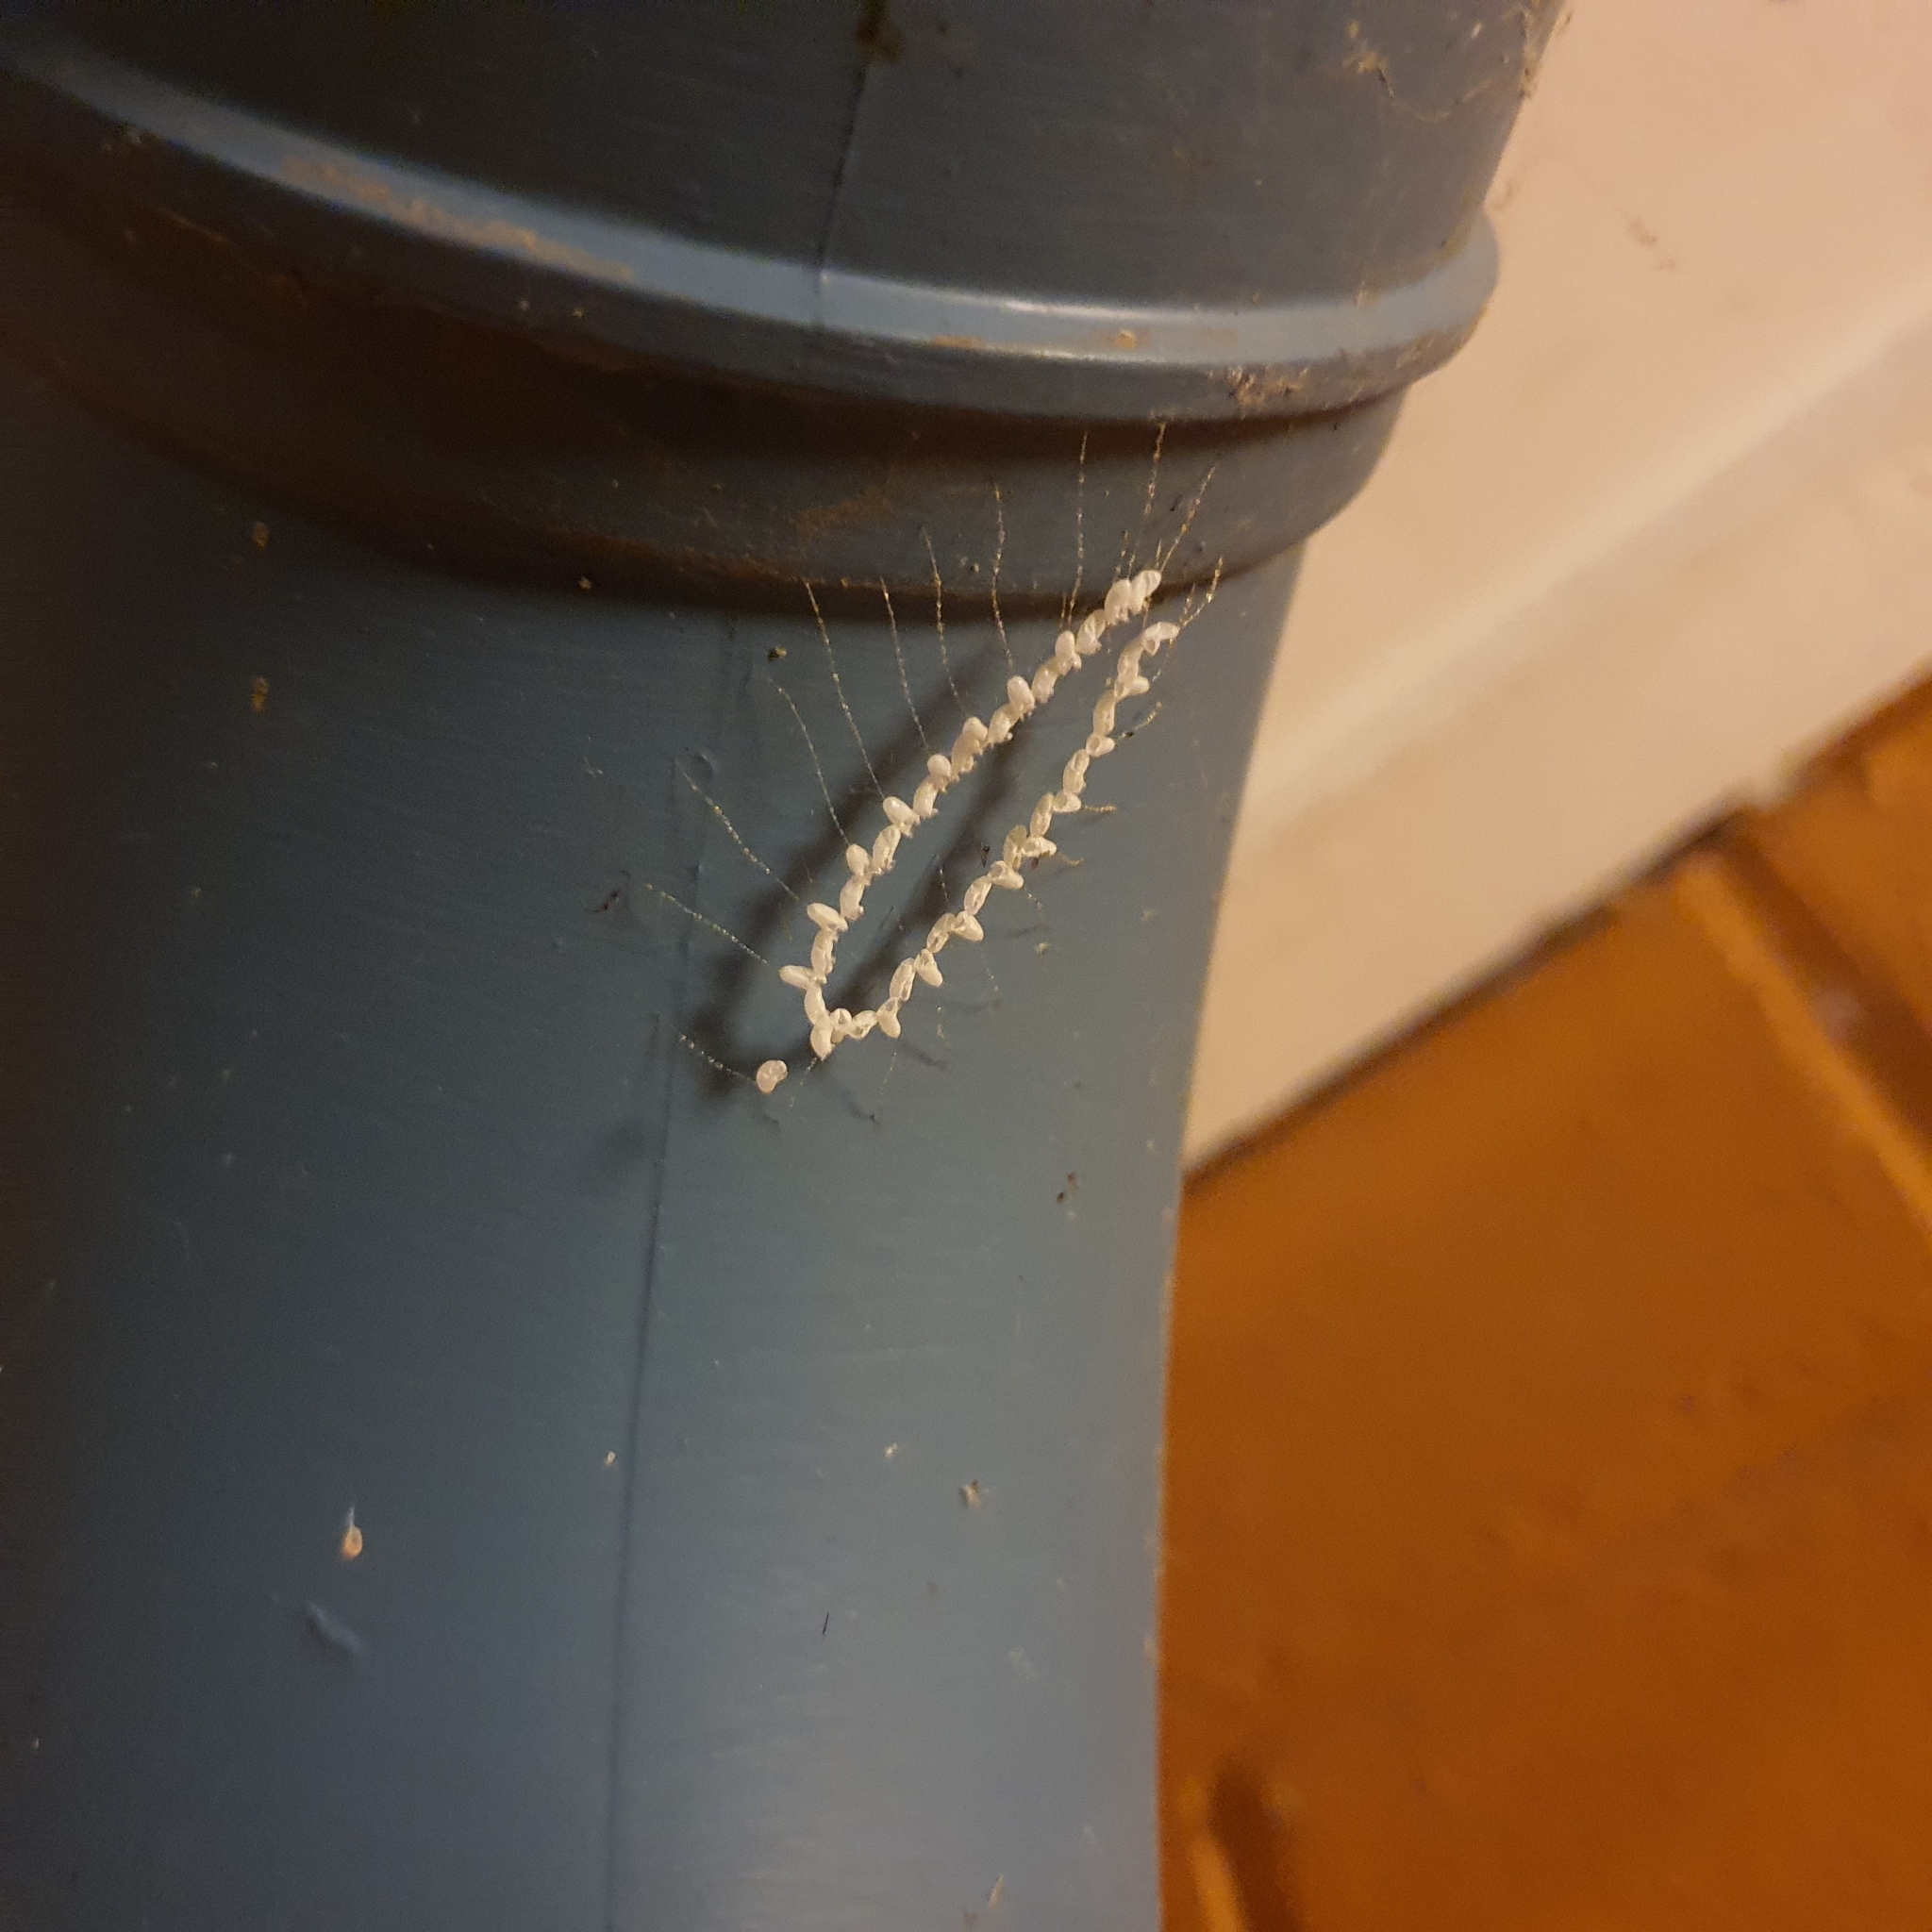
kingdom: Animalia
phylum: Arthropoda
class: Insecta
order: Neuroptera
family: Nymphidae
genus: Nymphes
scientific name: Nymphes myrmeleonoides
